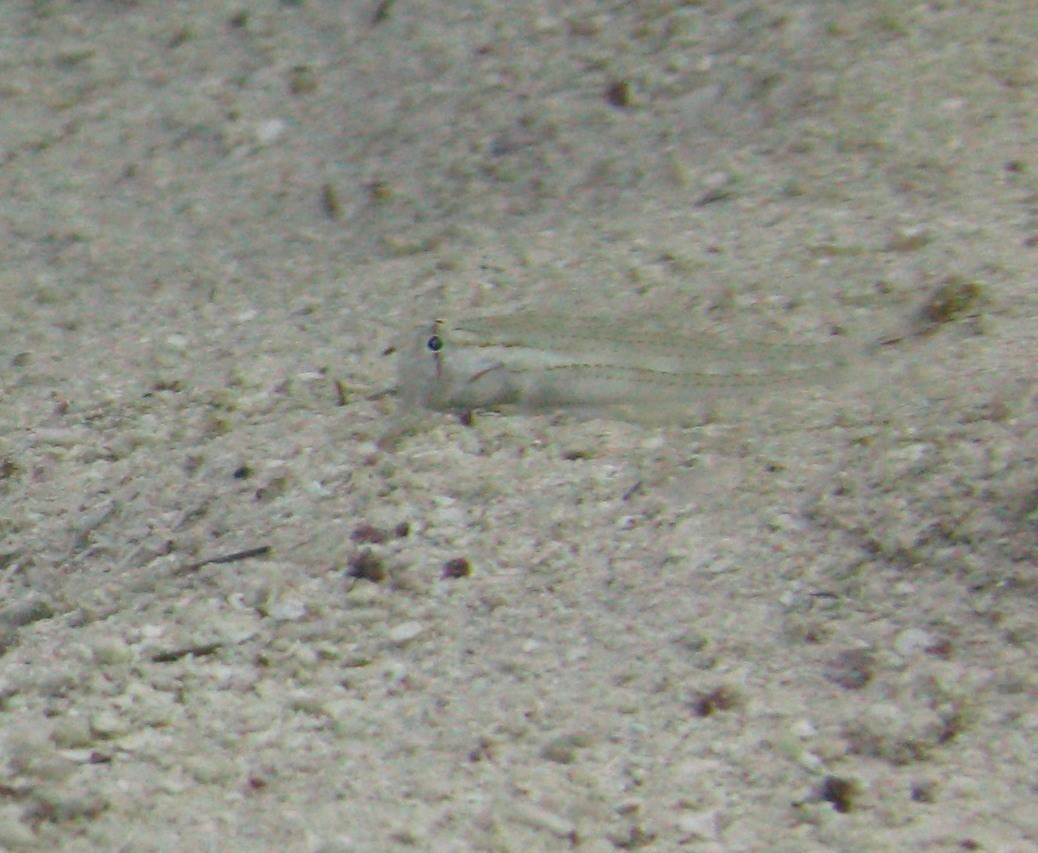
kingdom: Animalia
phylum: Chordata
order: Perciformes
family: Gobiidae
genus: Gnatholepis
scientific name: Gnatholepis caudimaculata
